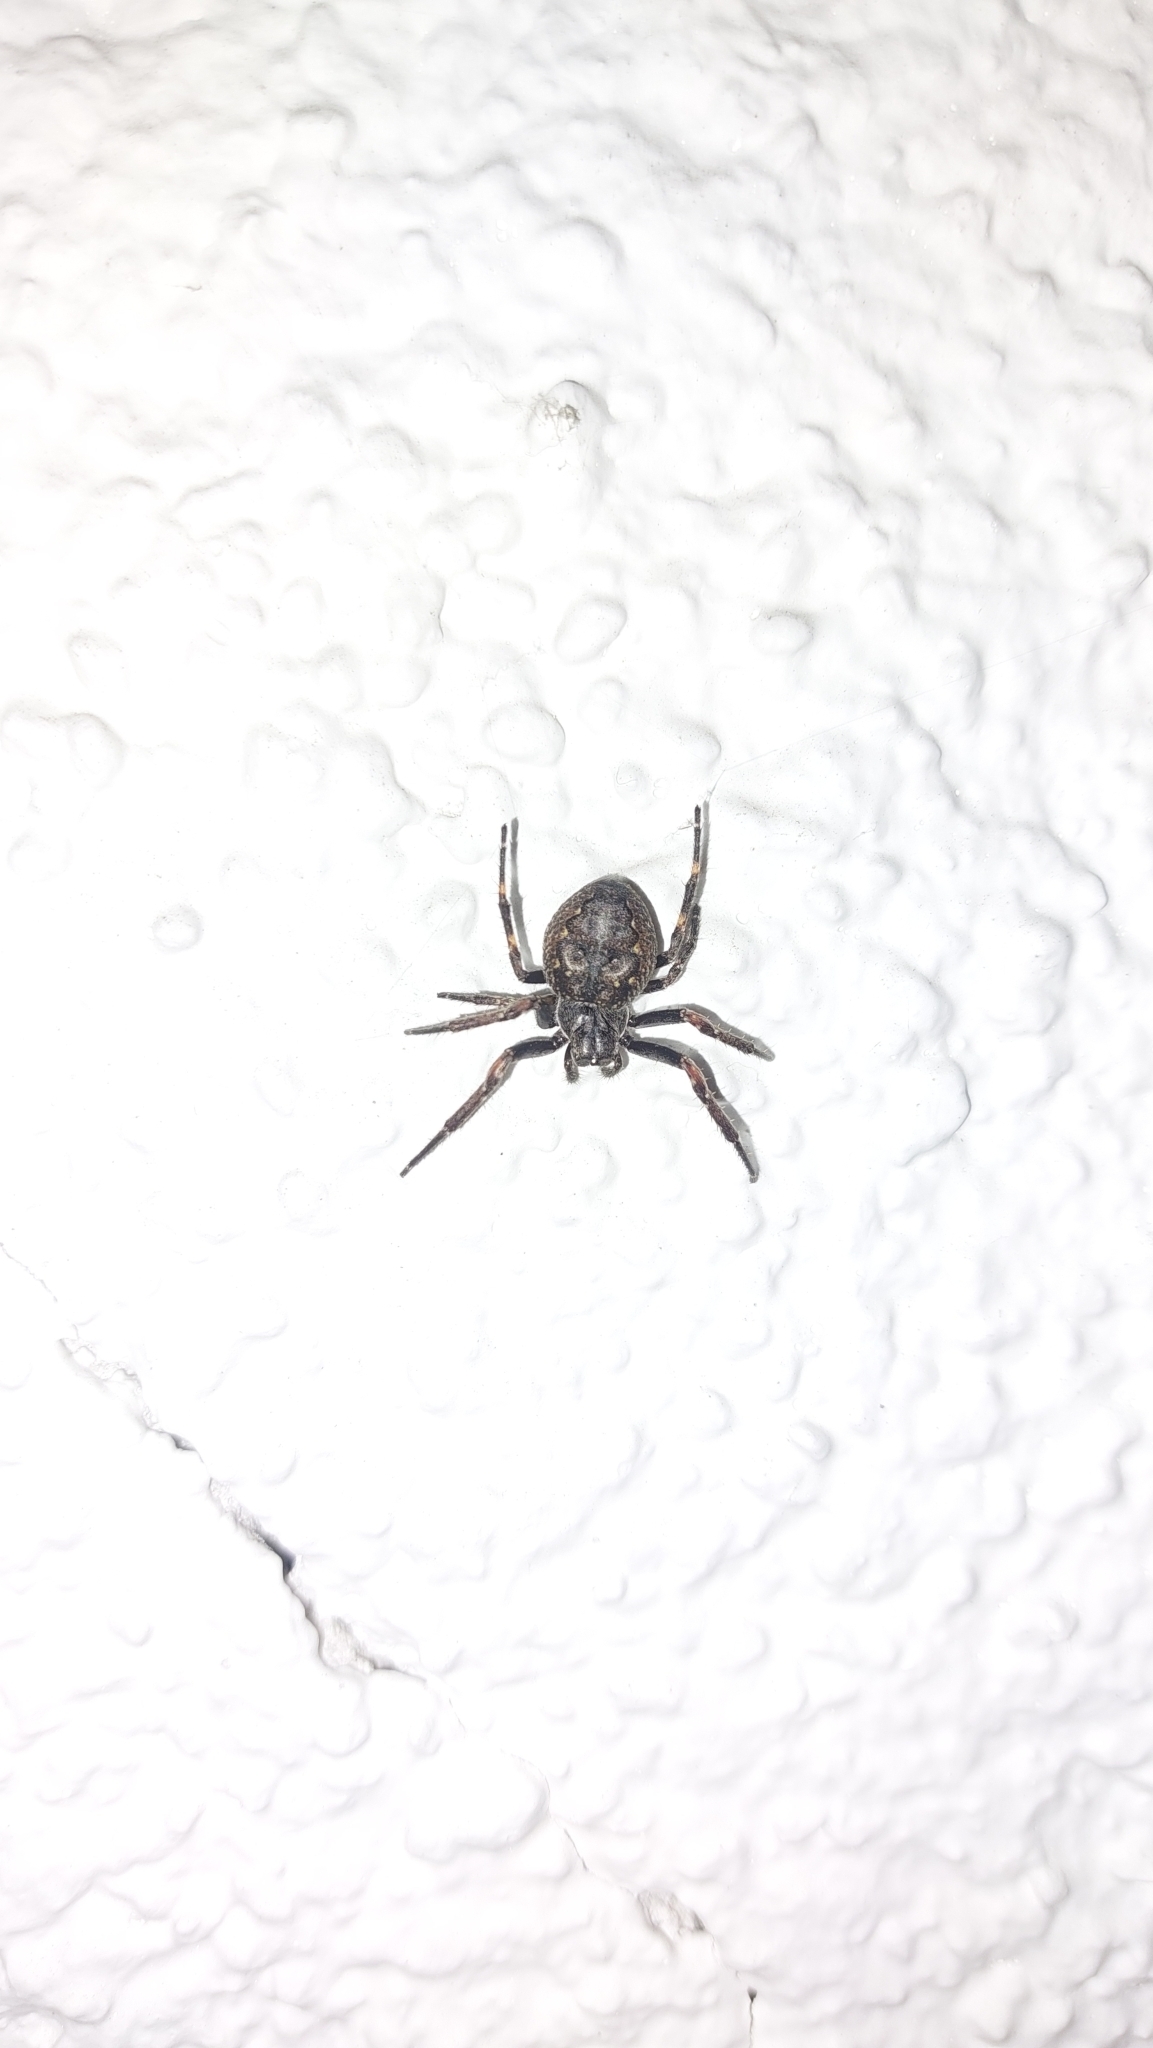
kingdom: Animalia
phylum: Arthropoda
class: Arachnida
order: Araneae
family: Araneidae
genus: Nuctenea
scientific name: Nuctenea umbratica
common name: Toad spider
